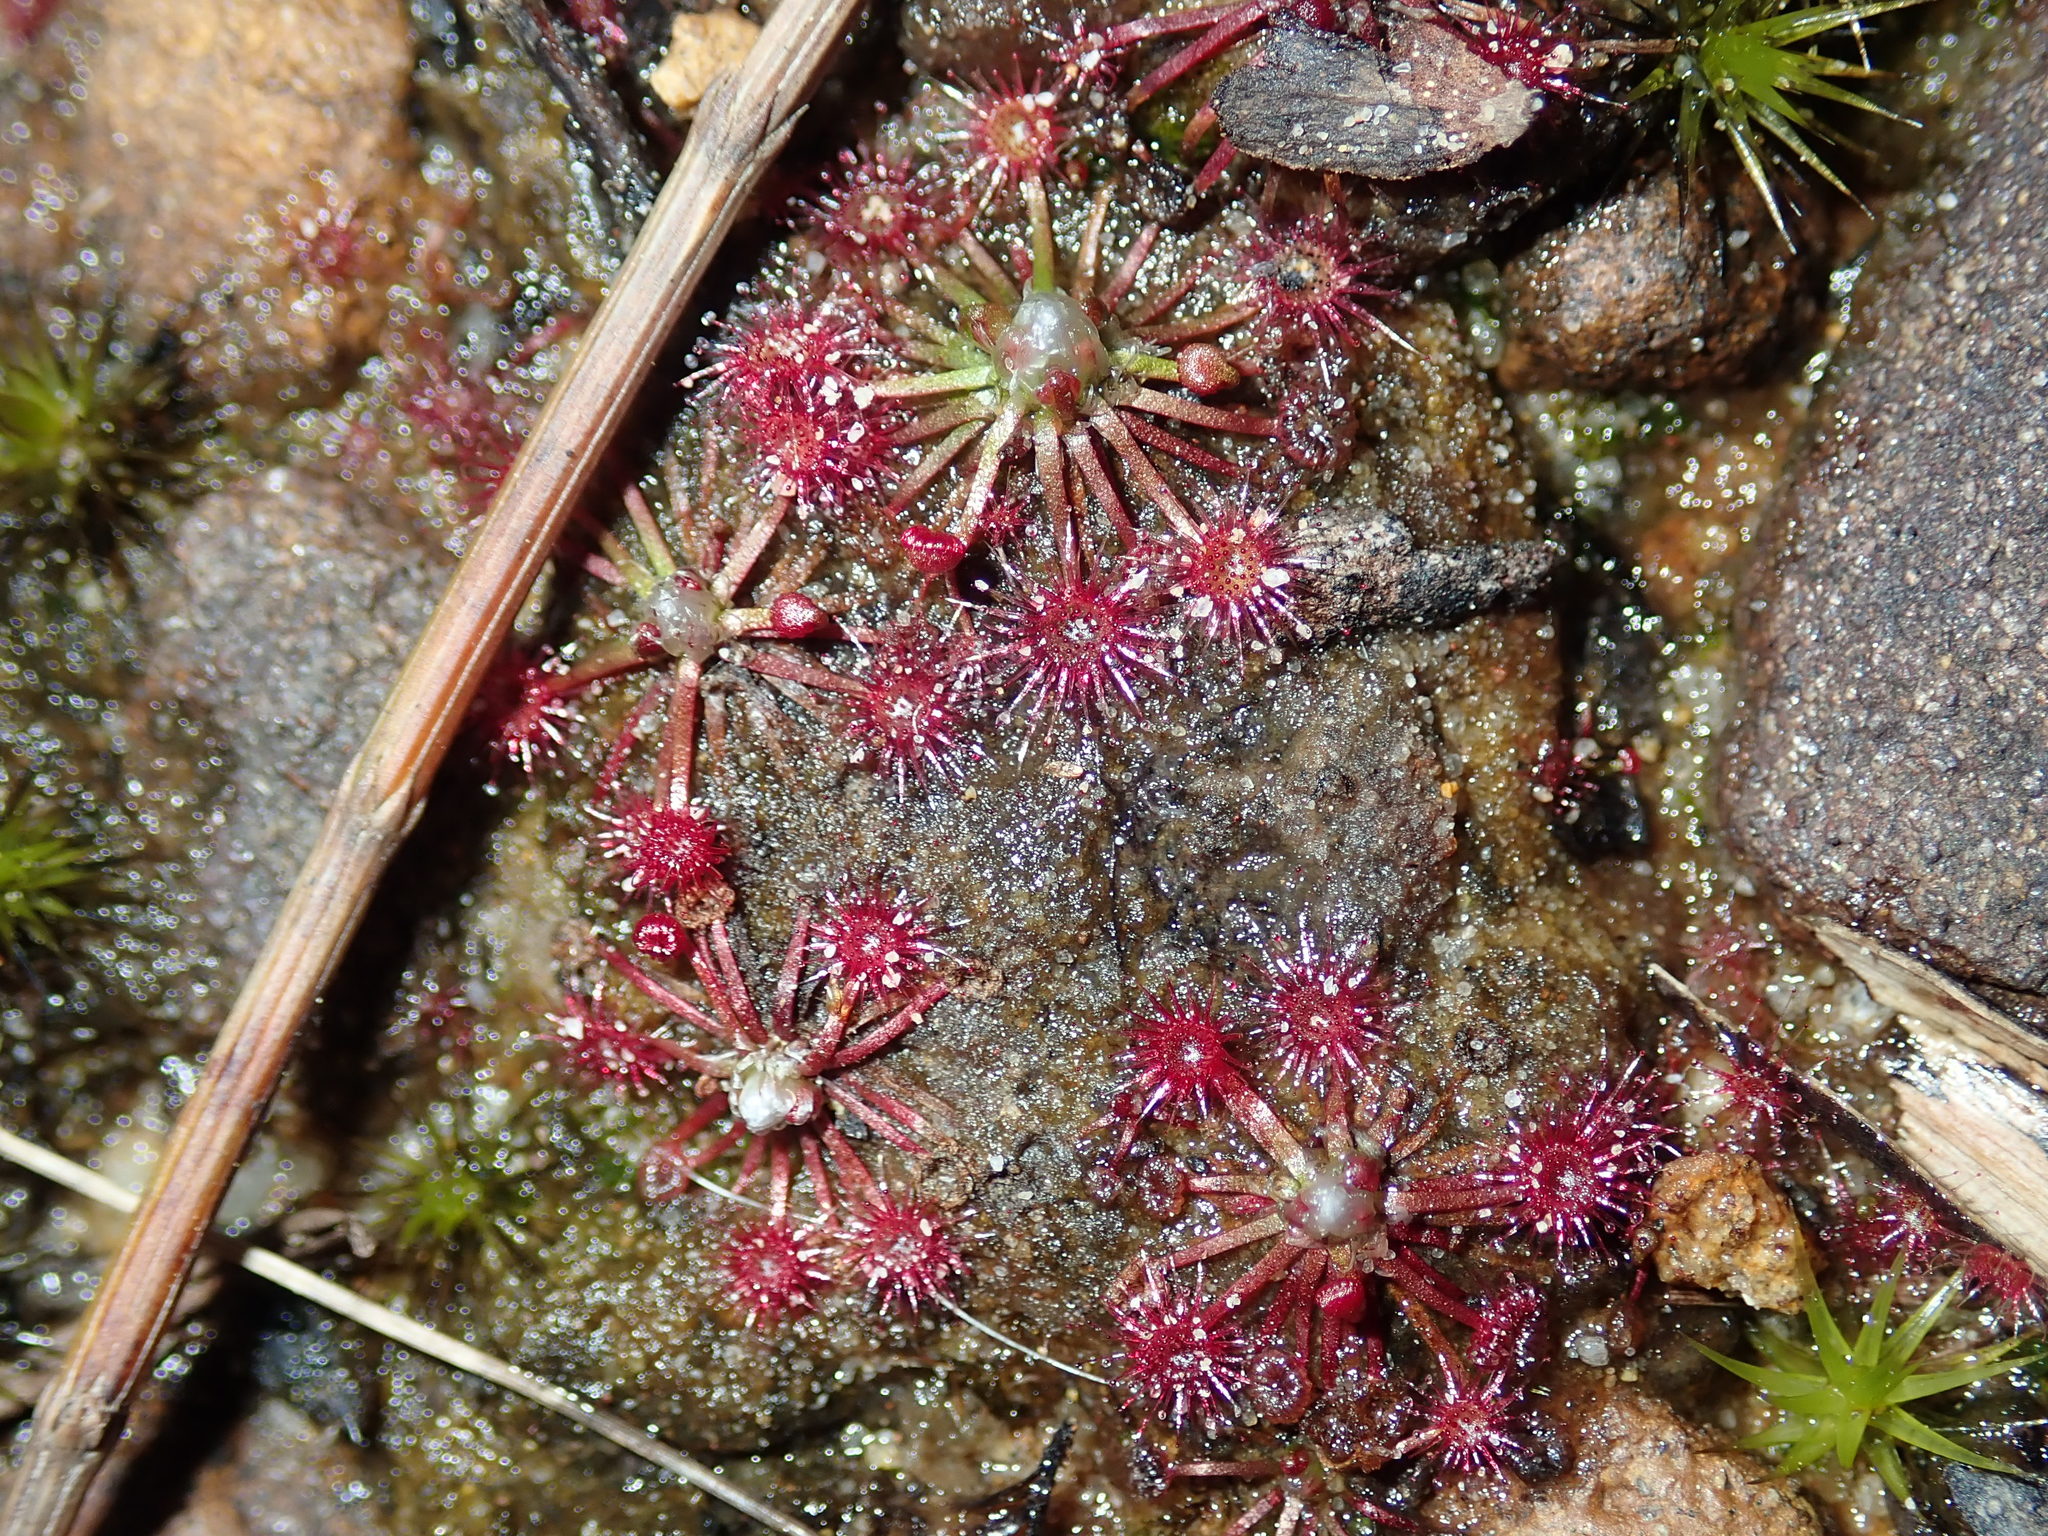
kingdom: Plantae
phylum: Tracheophyta
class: Magnoliopsida
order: Caryophyllales
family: Droseraceae
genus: Drosera
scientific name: Drosera pygmaea
